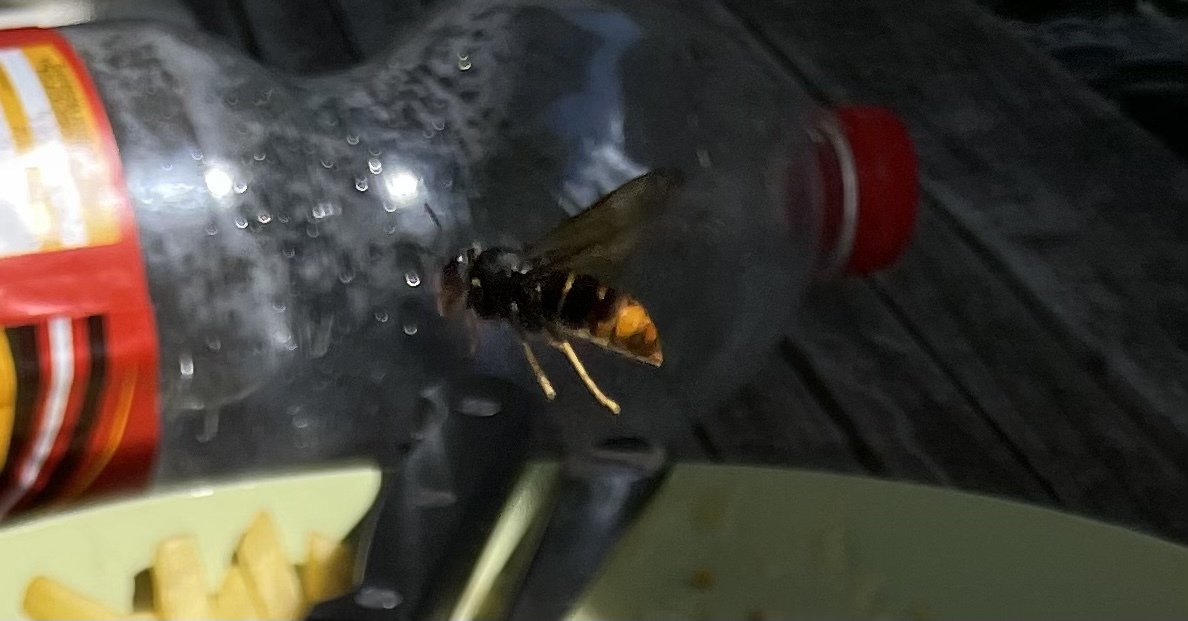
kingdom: Animalia
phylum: Arthropoda
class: Insecta
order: Hymenoptera
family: Vespidae
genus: Vespa
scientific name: Vespa velutina
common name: Asian hornet
